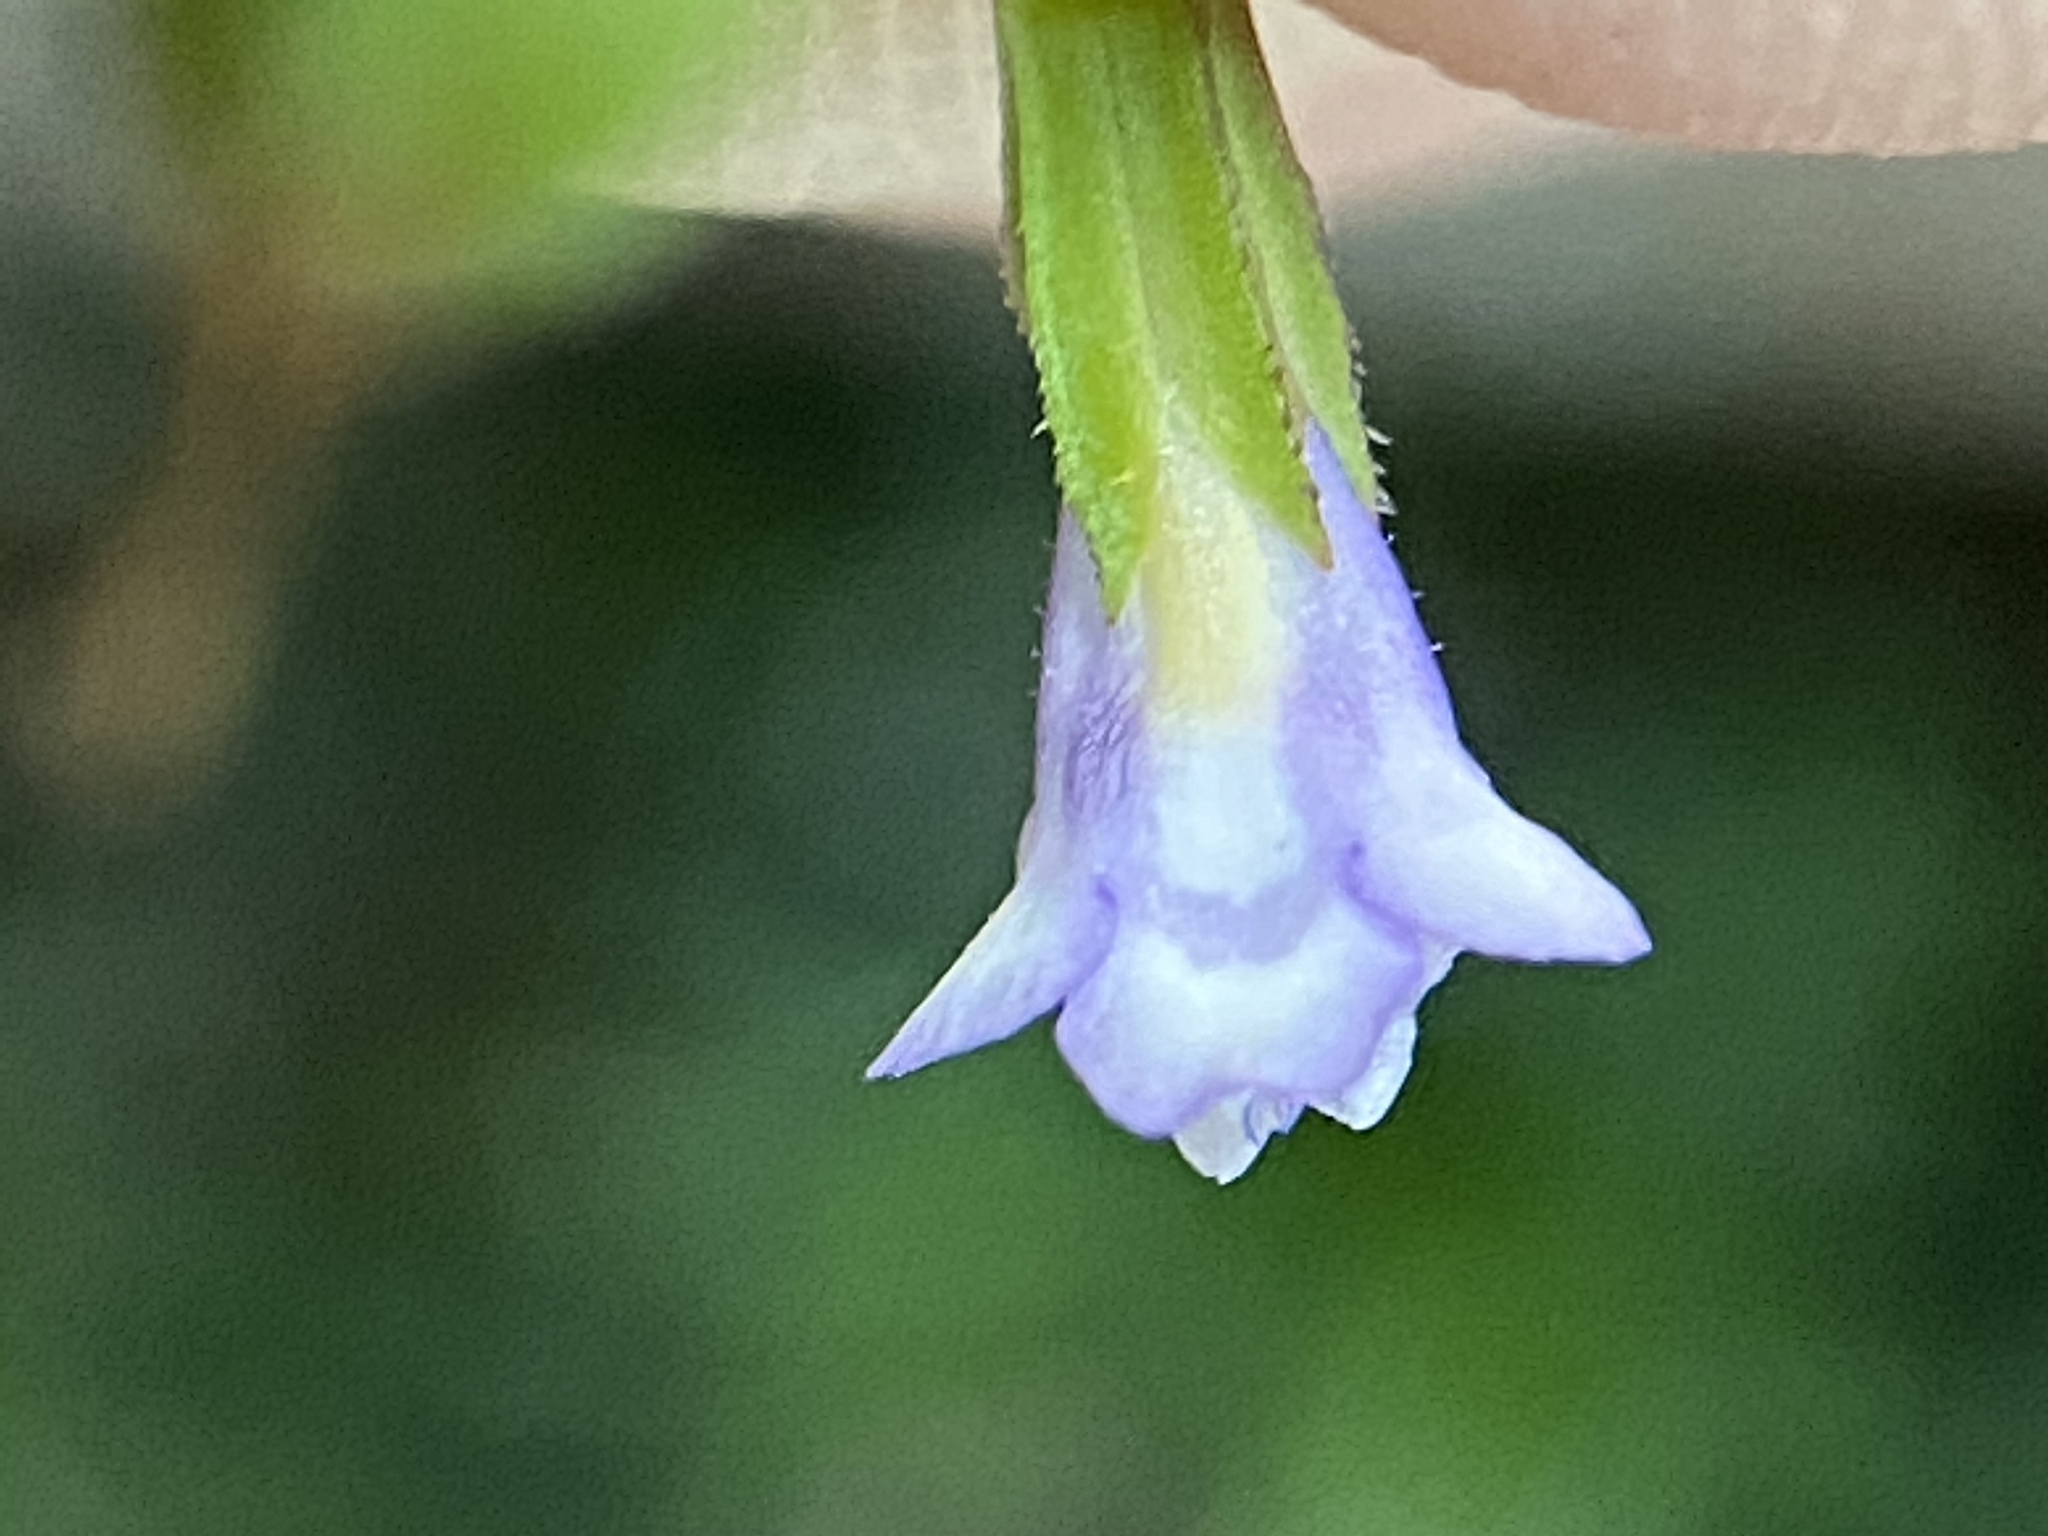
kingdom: Plantae
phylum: Tracheophyta
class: Magnoliopsida
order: Lamiales
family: Linderniaceae
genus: Torenia
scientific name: Torenia crustacea
